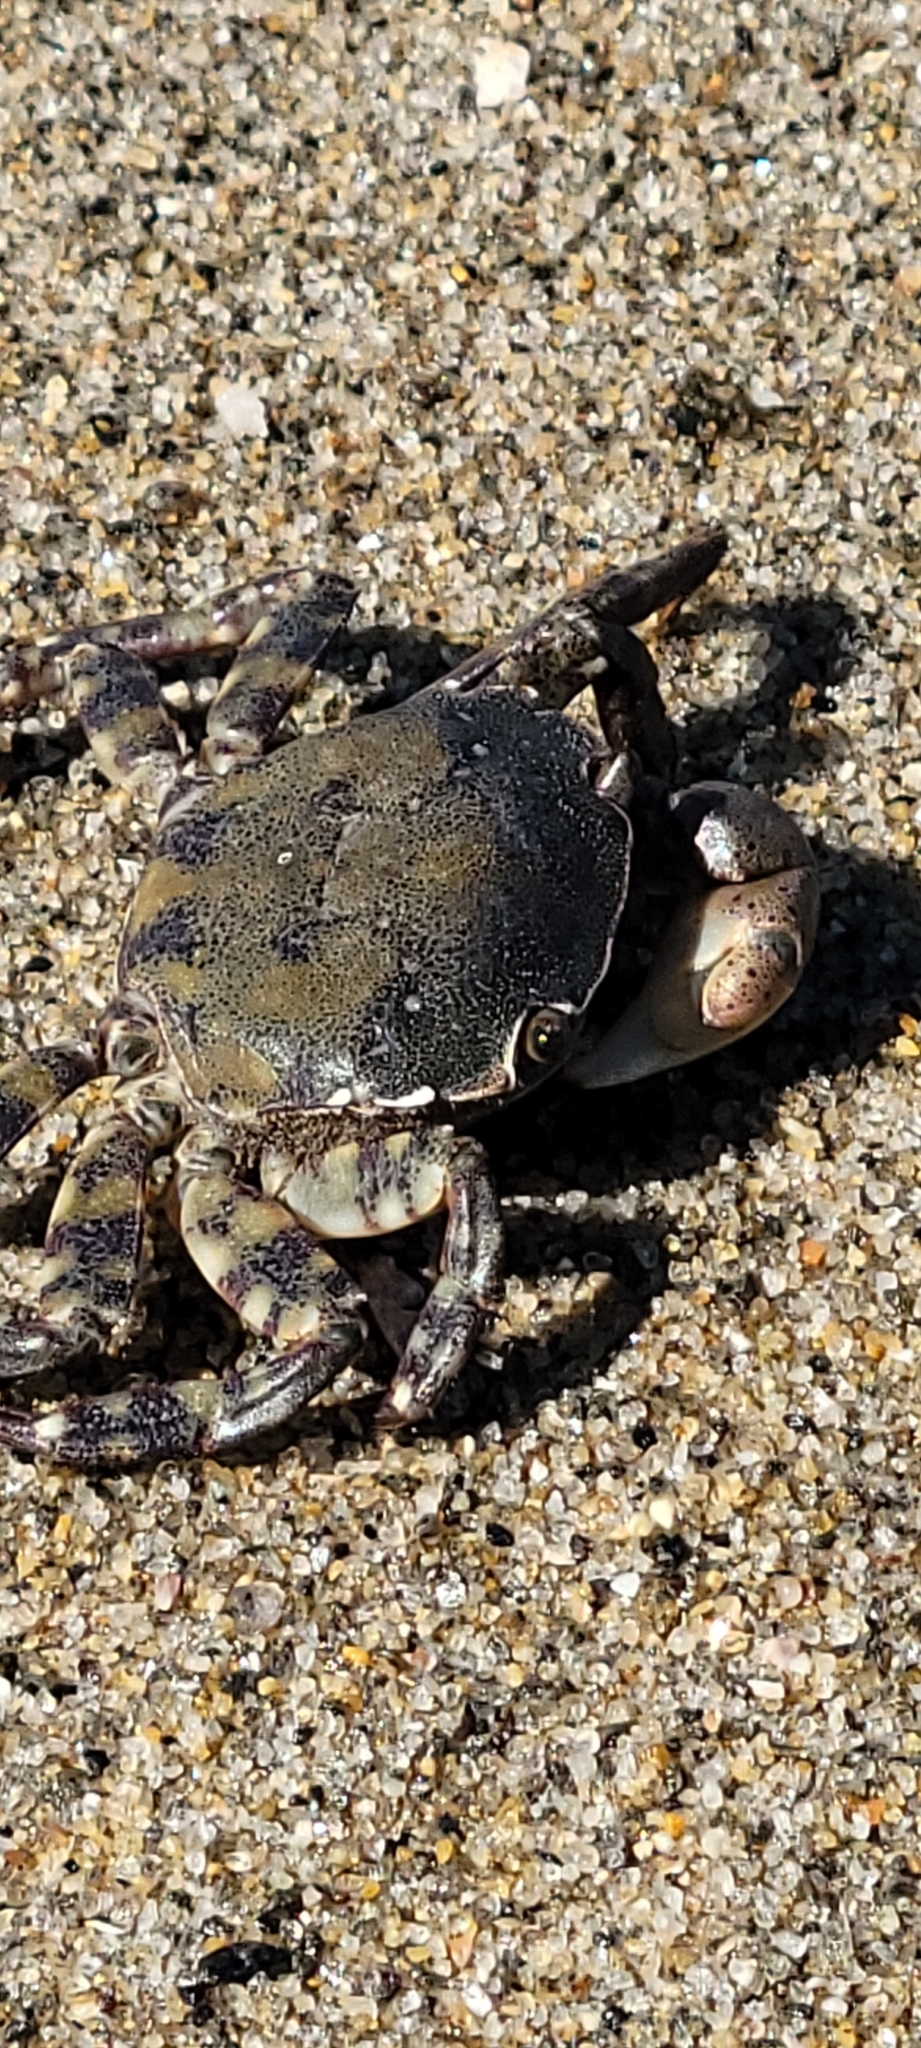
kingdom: Animalia
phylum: Arthropoda
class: Malacostraca
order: Decapoda
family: Varunidae
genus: Hemigrapsus
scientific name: Hemigrapsus sanguineus
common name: Asian shore crab
